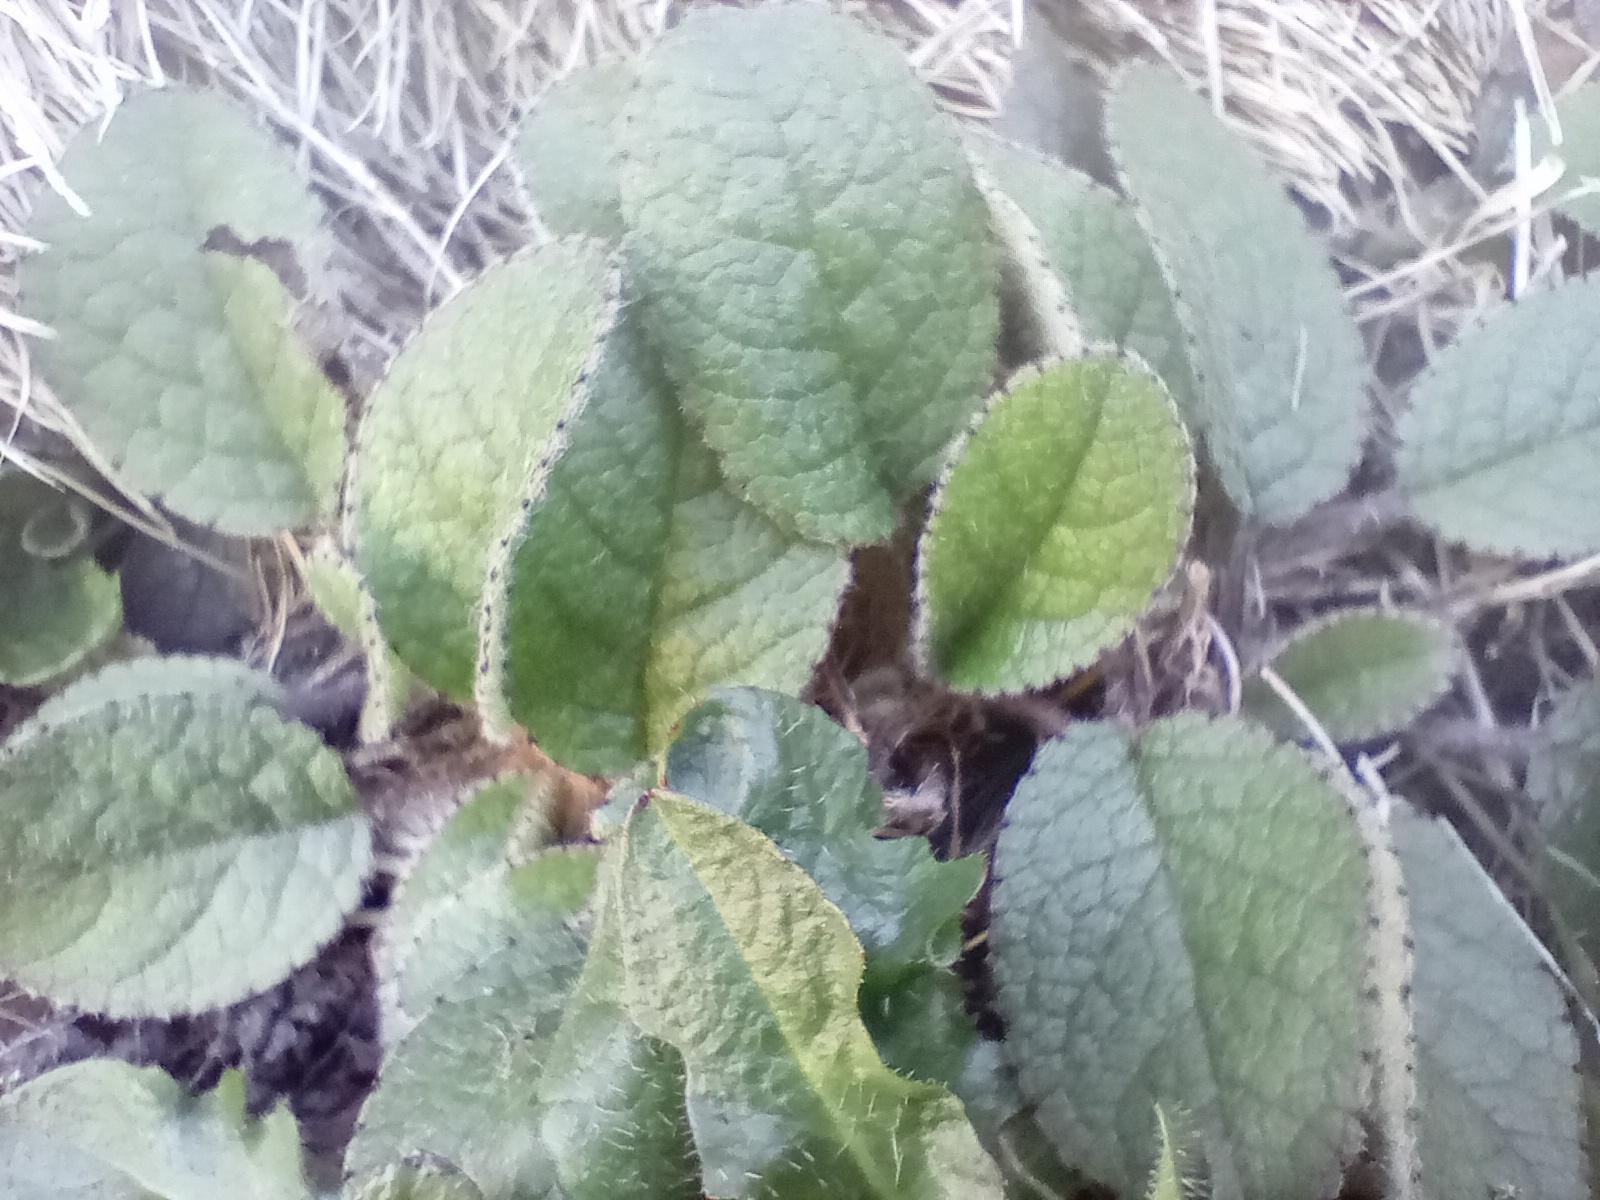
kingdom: Plantae
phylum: Tracheophyta
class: Magnoliopsida
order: Asterales
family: Asteraceae
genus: Brachyglottis
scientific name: Brachyglottis bellidioides
